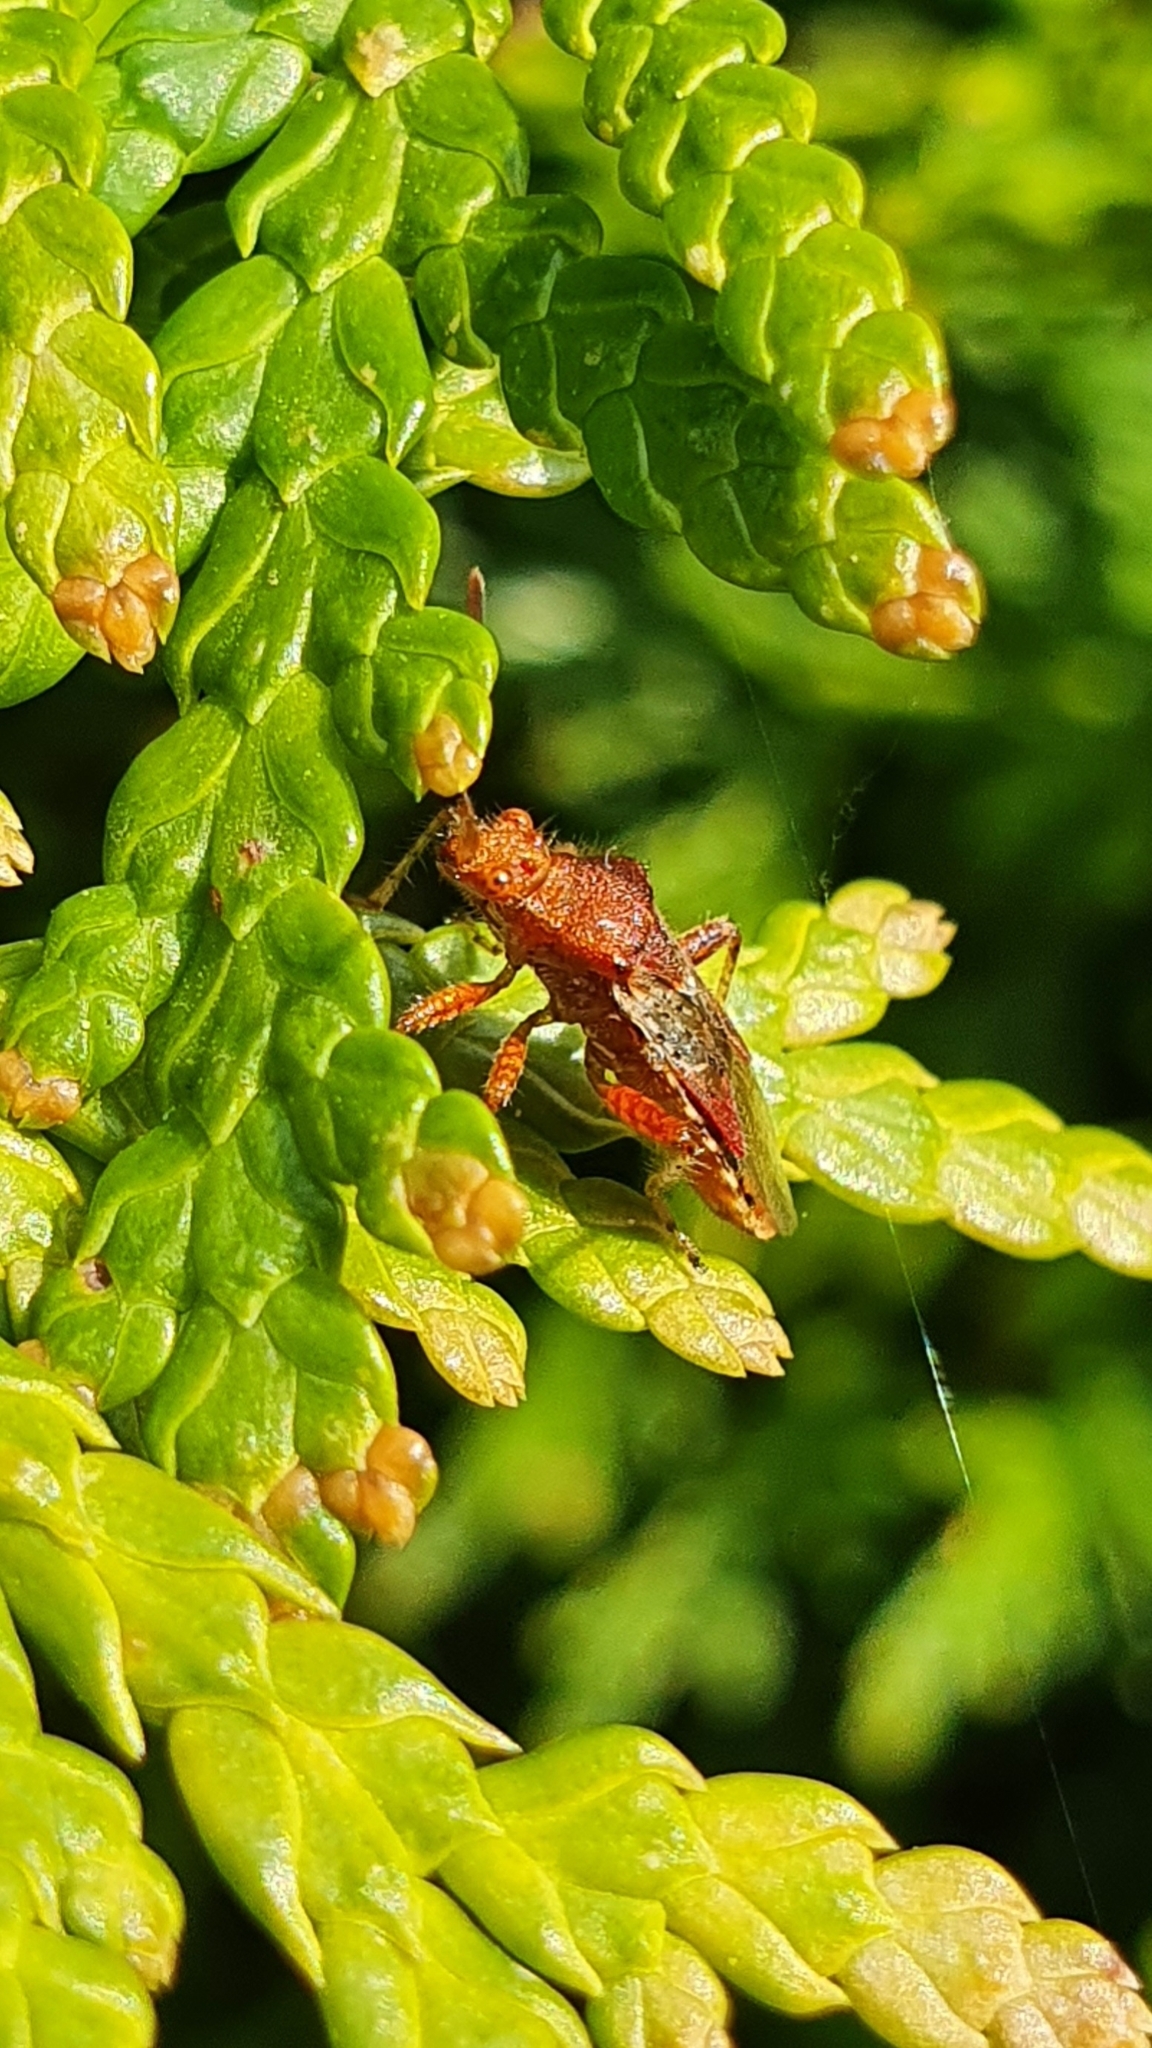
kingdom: Animalia
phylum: Arthropoda
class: Insecta
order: Hemiptera
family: Rhopalidae
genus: Rhopalus
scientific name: Rhopalus subrufus
